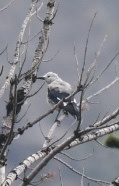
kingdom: Animalia
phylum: Chordata
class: Aves
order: Passeriformes
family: Corvidae
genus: Nucifraga
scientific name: Nucifraga columbiana
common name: Clark's nutcracker
